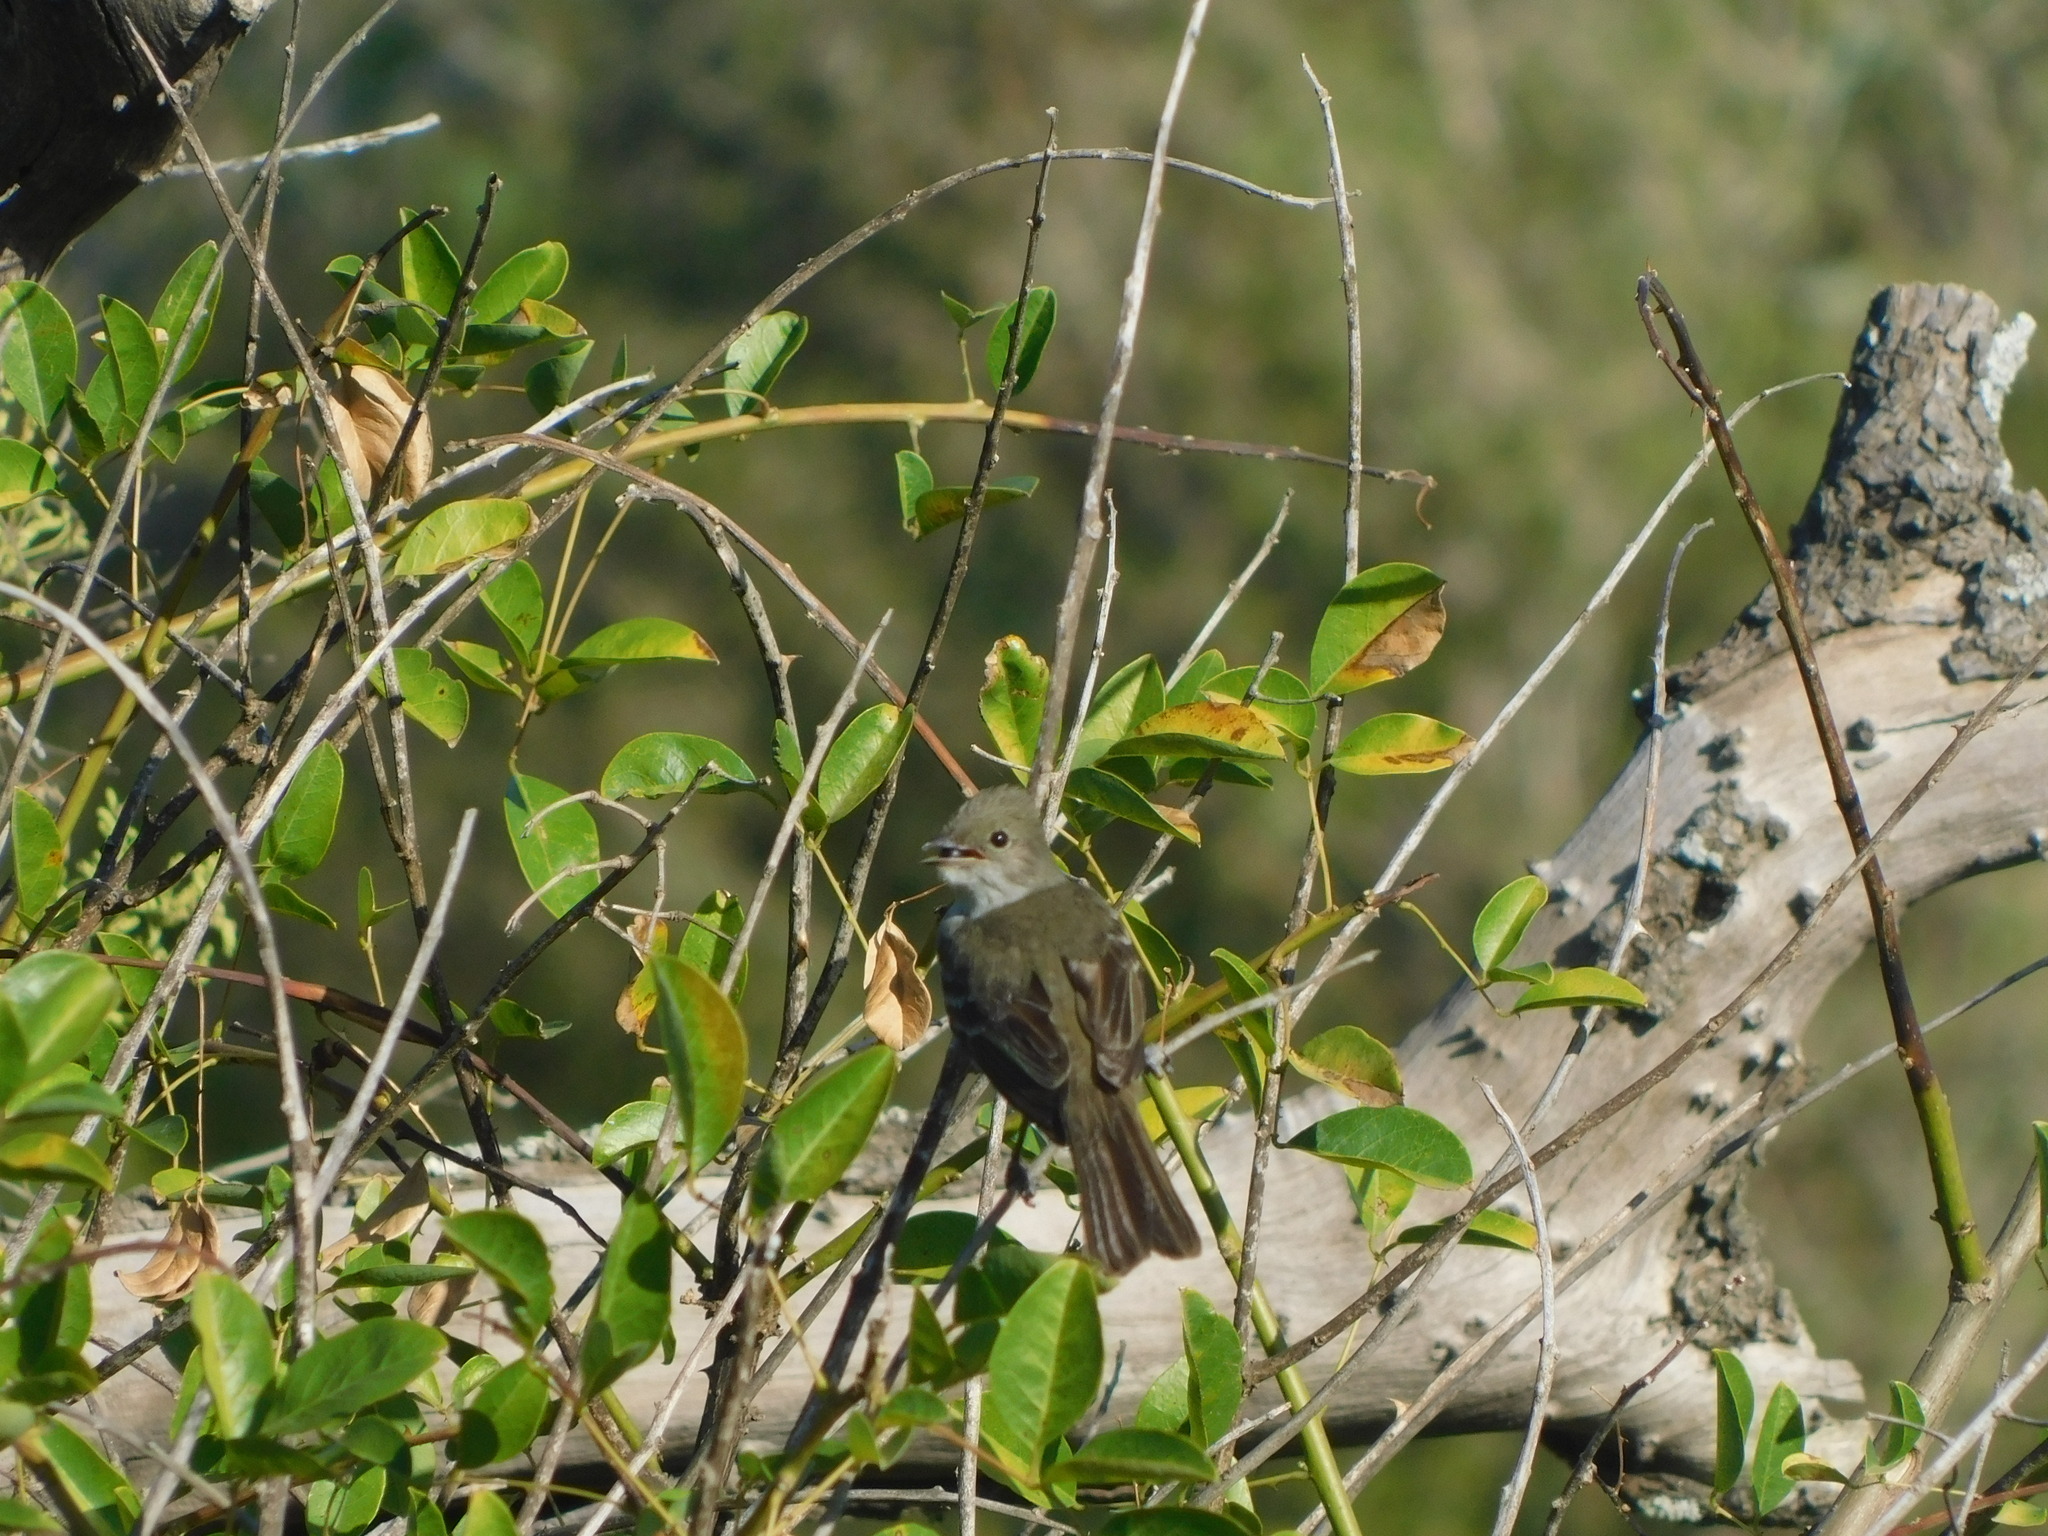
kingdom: Animalia
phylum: Chordata
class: Aves
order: Passeriformes
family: Tyrannidae
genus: Elaenia
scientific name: Elaenia spectabilis
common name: Large elaenia
